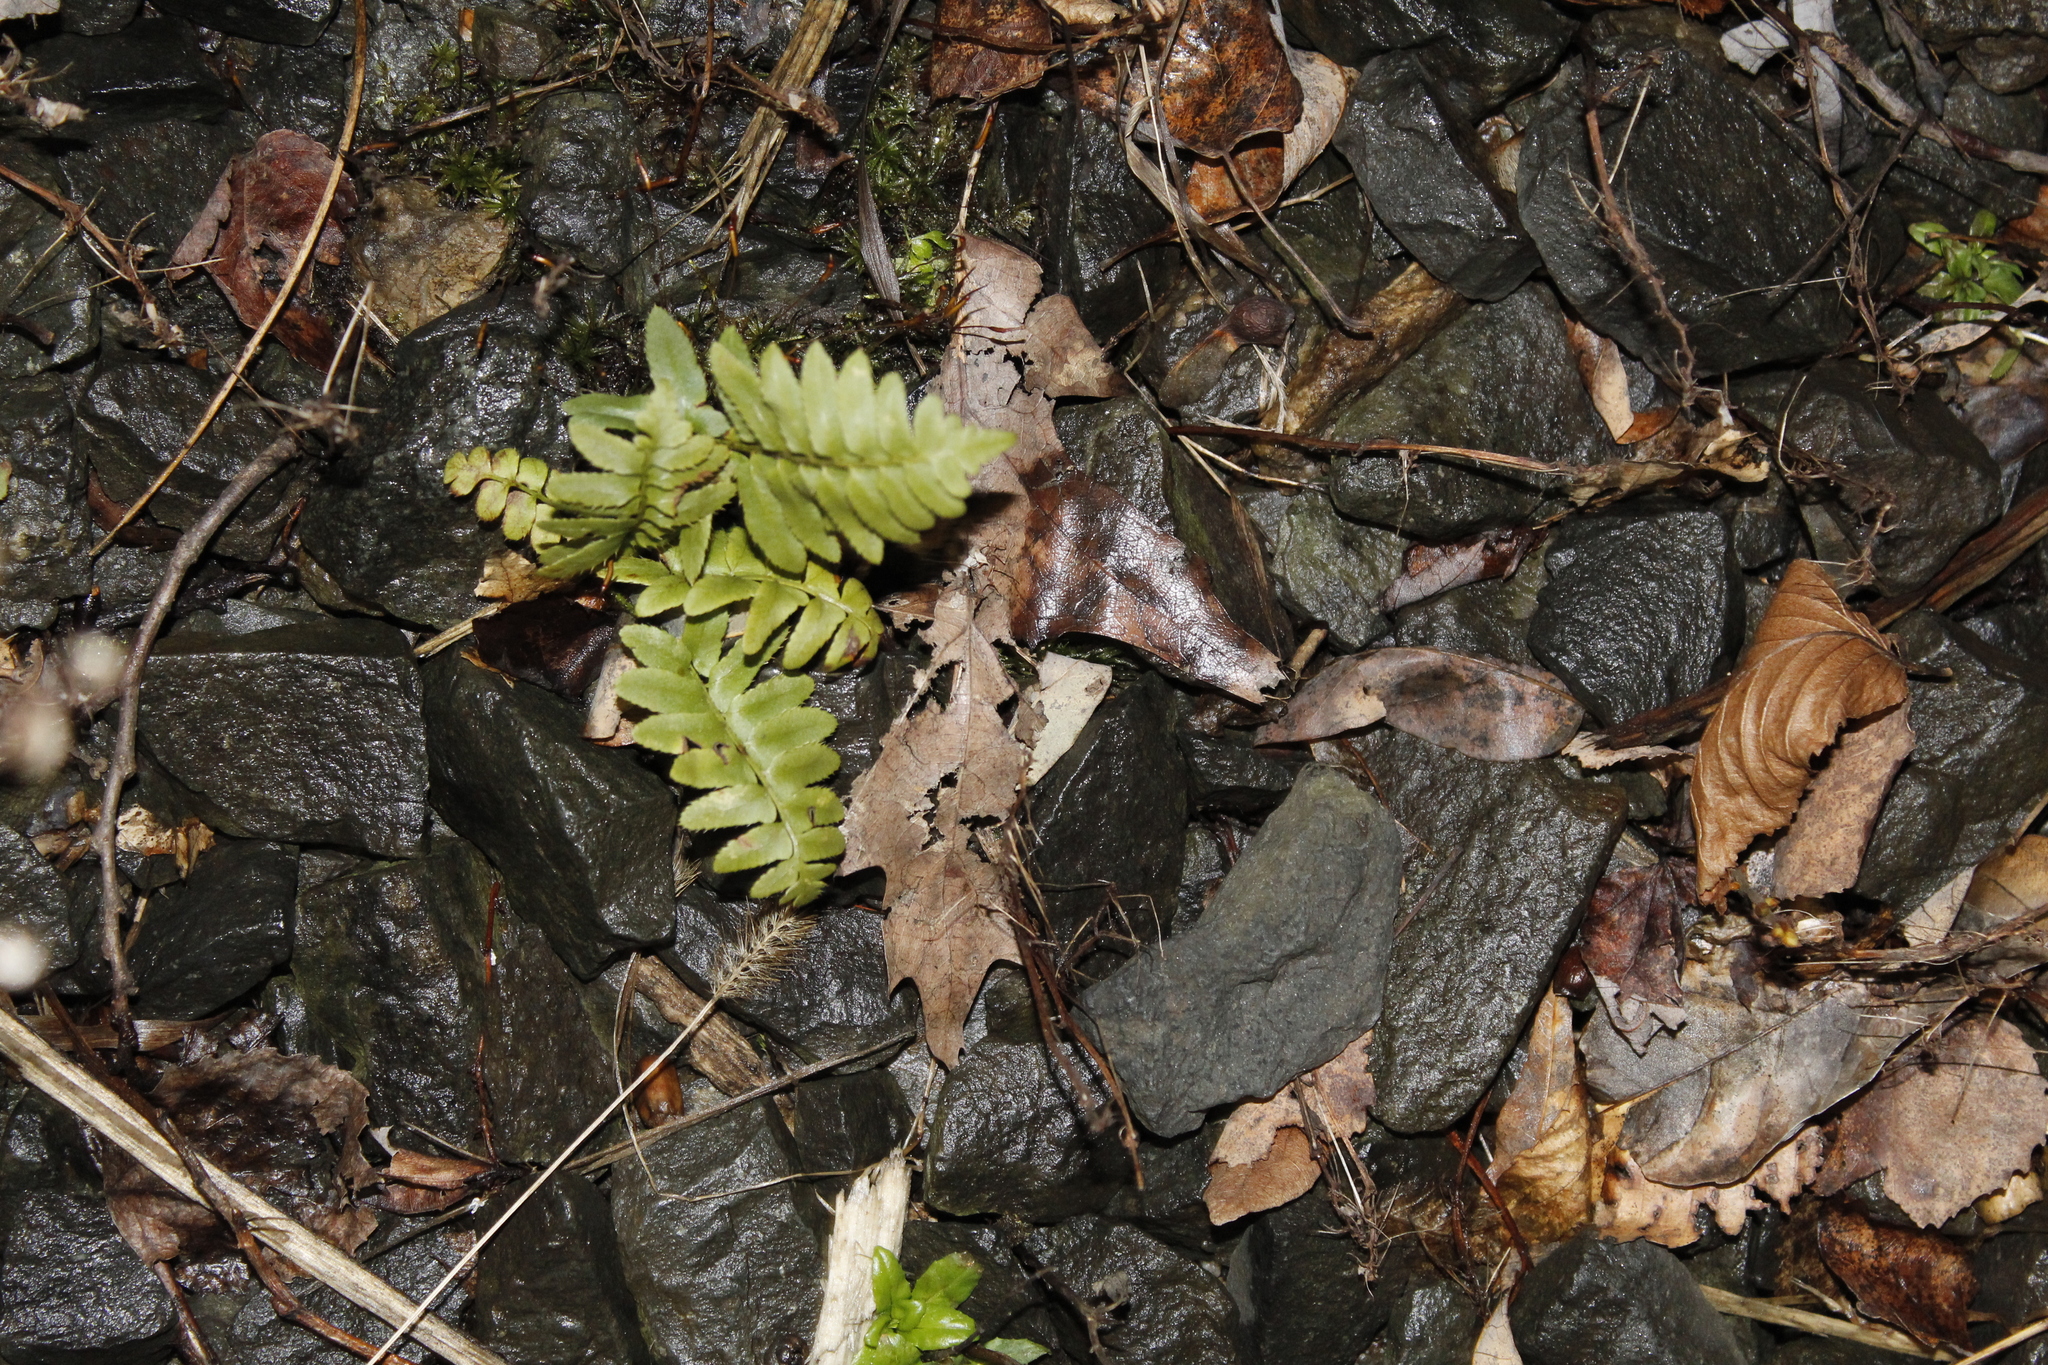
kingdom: Plantae
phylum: Tracheophyta
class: Polypodiopsida
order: Polypodiales
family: Dryopteridaceae
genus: Polystichum
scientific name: Polystichum acrostichoides
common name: Christmas fern
